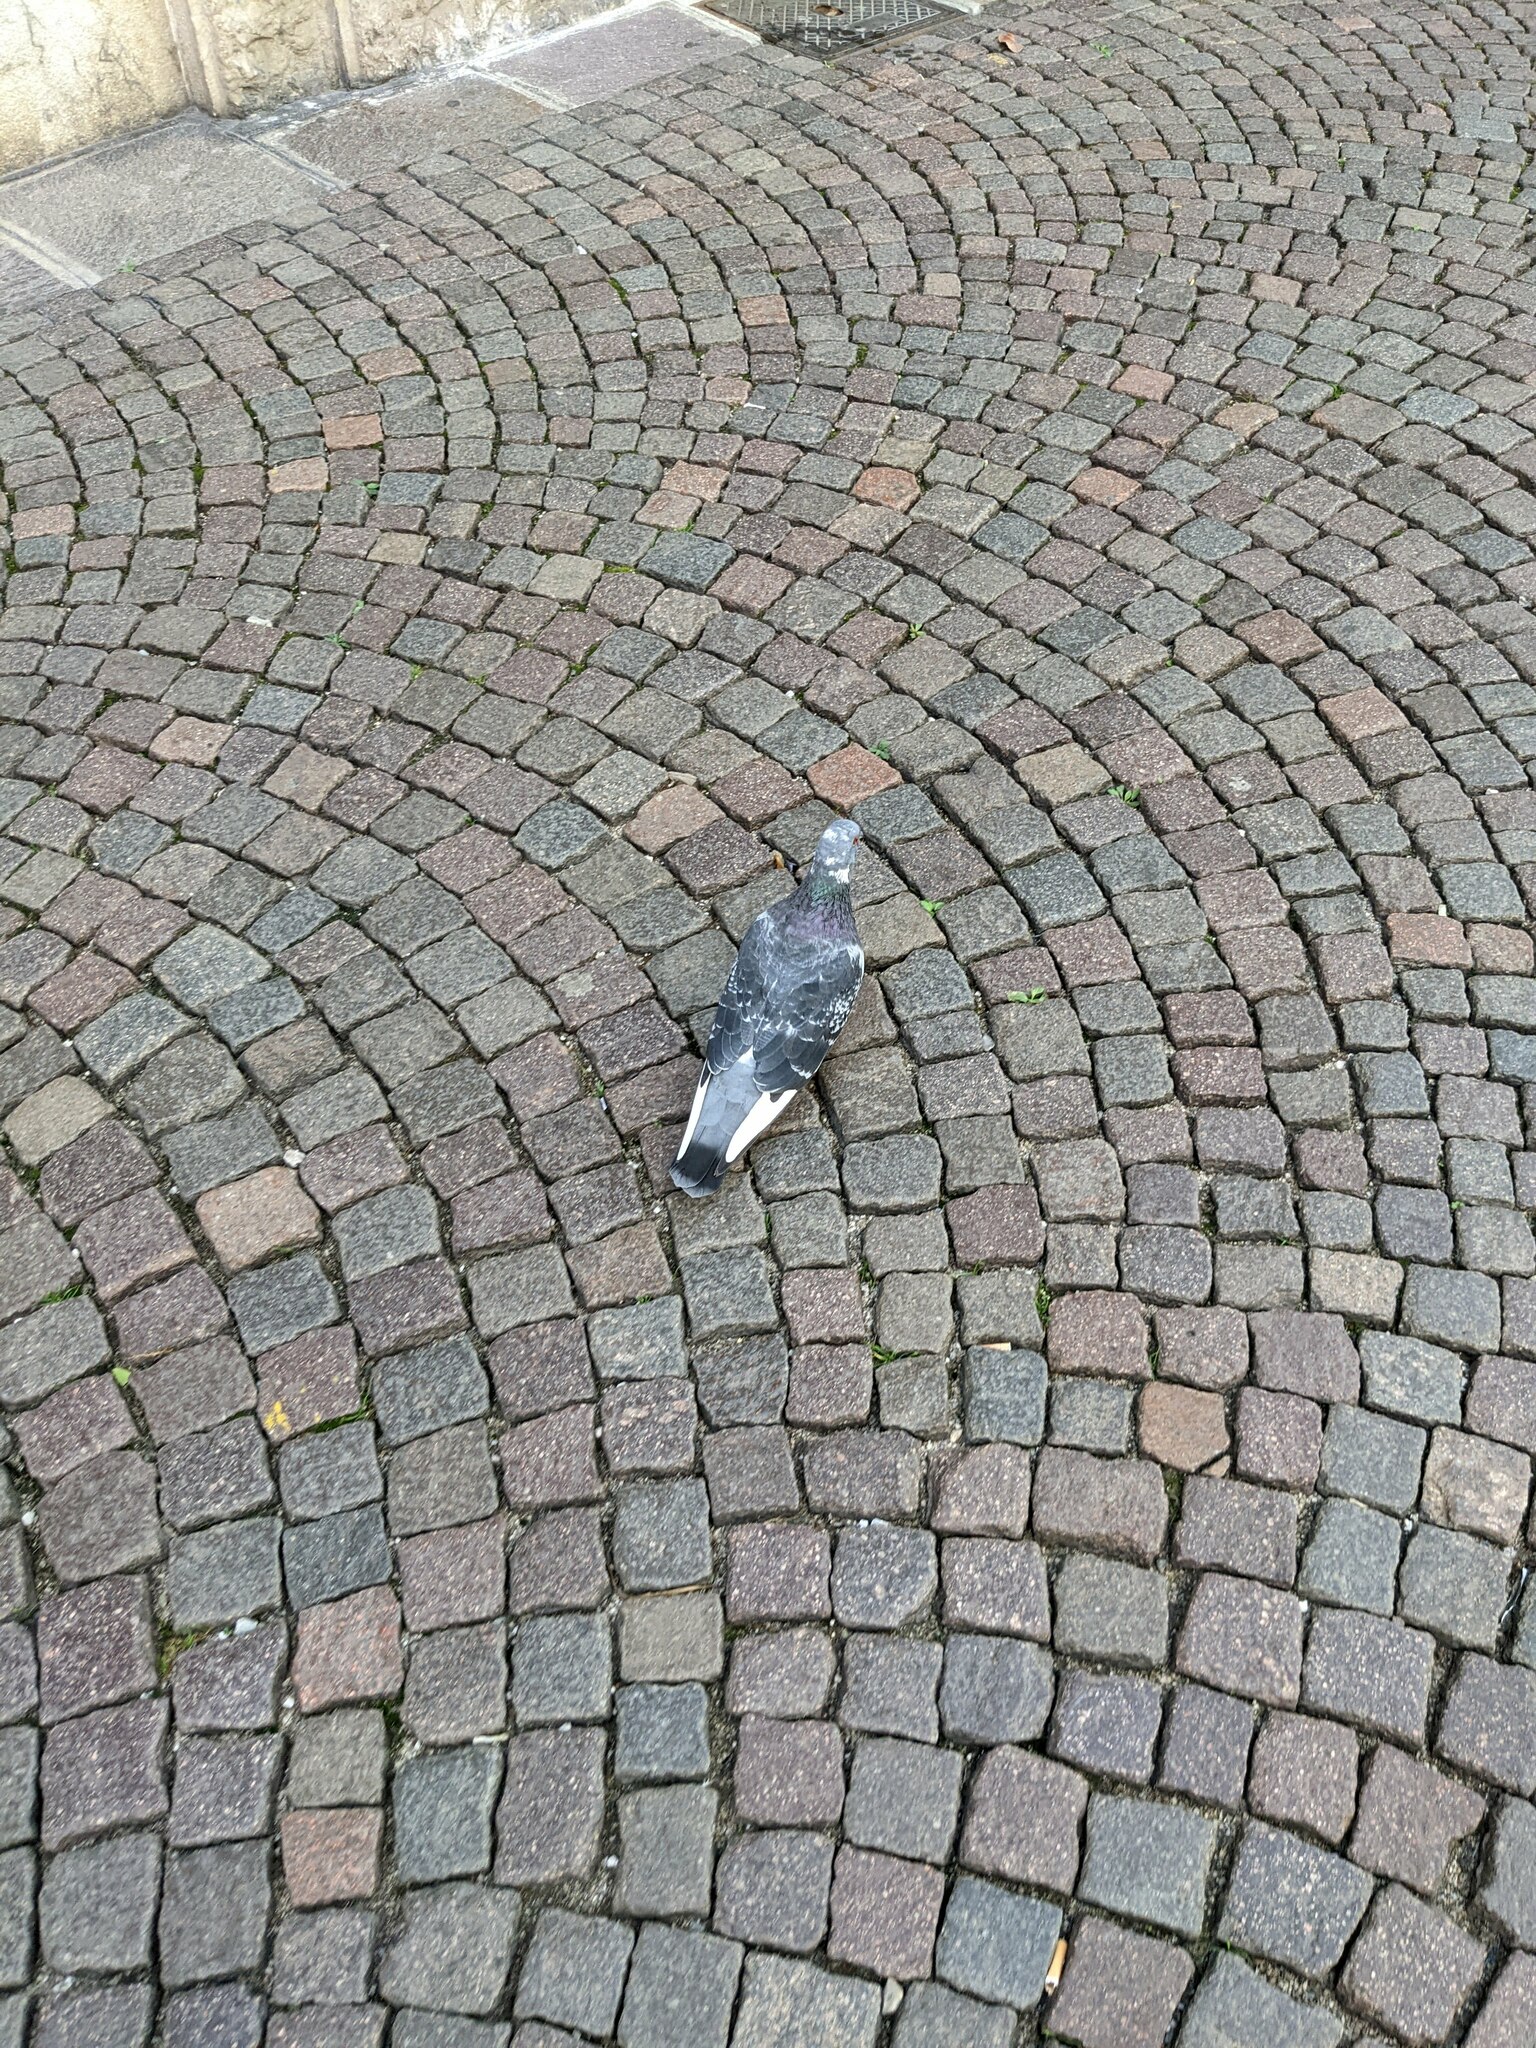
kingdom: Animalia
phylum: Chordata
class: Aves
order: Columbiformes
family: Columbidae
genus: Columba
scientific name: Columba livia
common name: Rock pigeon
